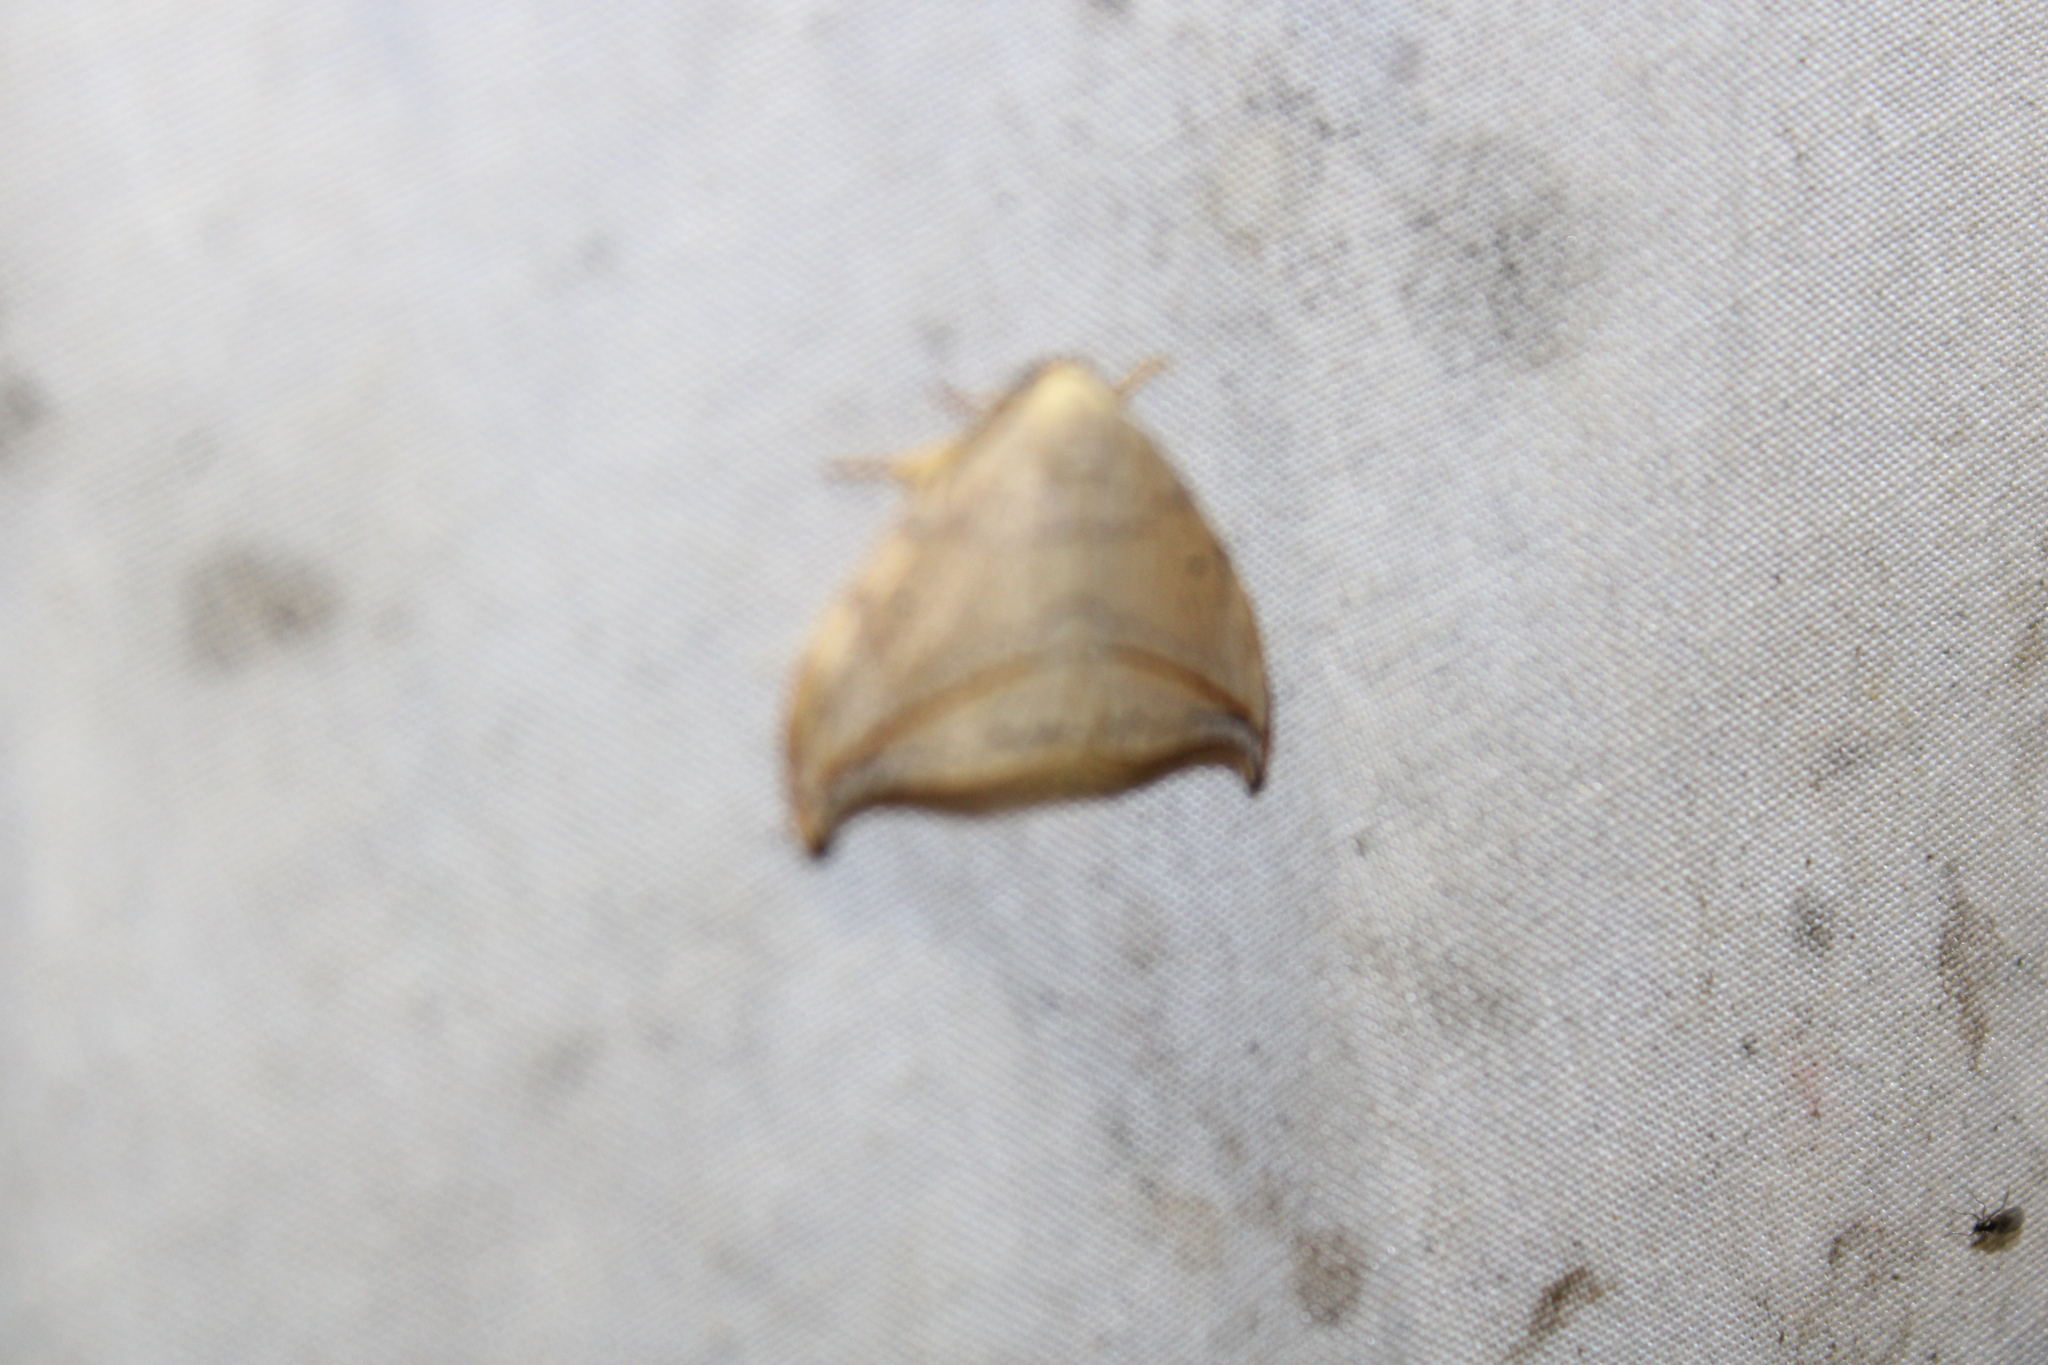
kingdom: Animalia
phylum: Arthropoda
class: Insecta
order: Lepidoptera
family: Drepanidae
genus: Drepana
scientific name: Drepana arcuata
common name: Arched hooktip moth
